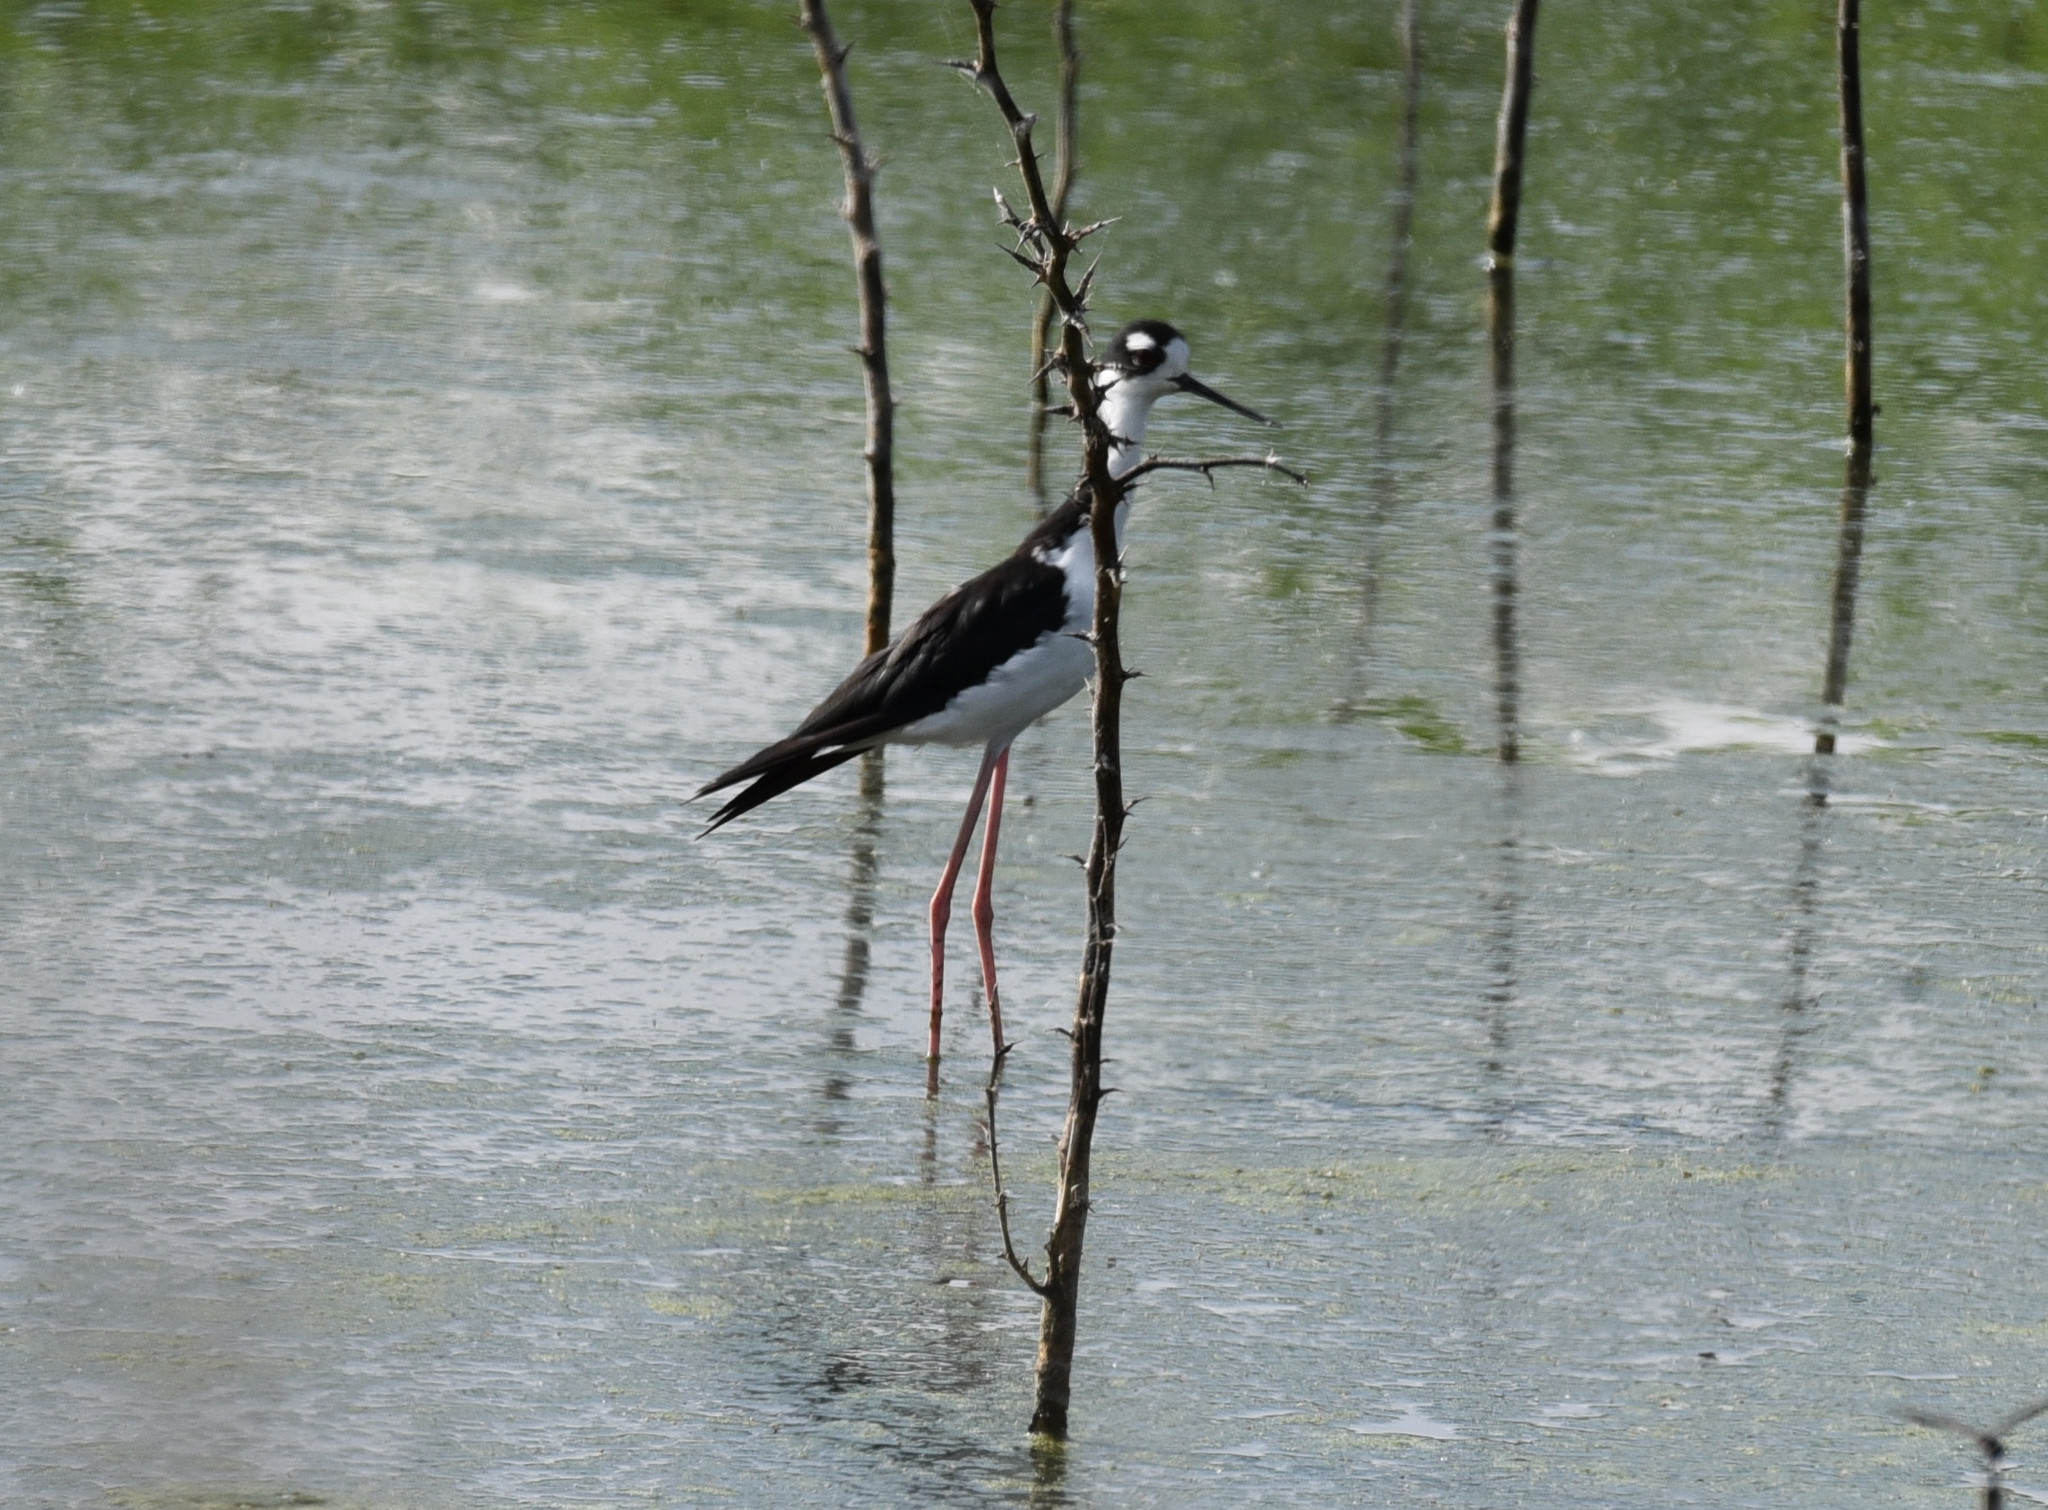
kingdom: Animalia
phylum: Chordata
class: Aves
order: Charadriiformes
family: Recurvirostridae
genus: Himantopus
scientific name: Himantopus mexicanus
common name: Black-necked stilt
